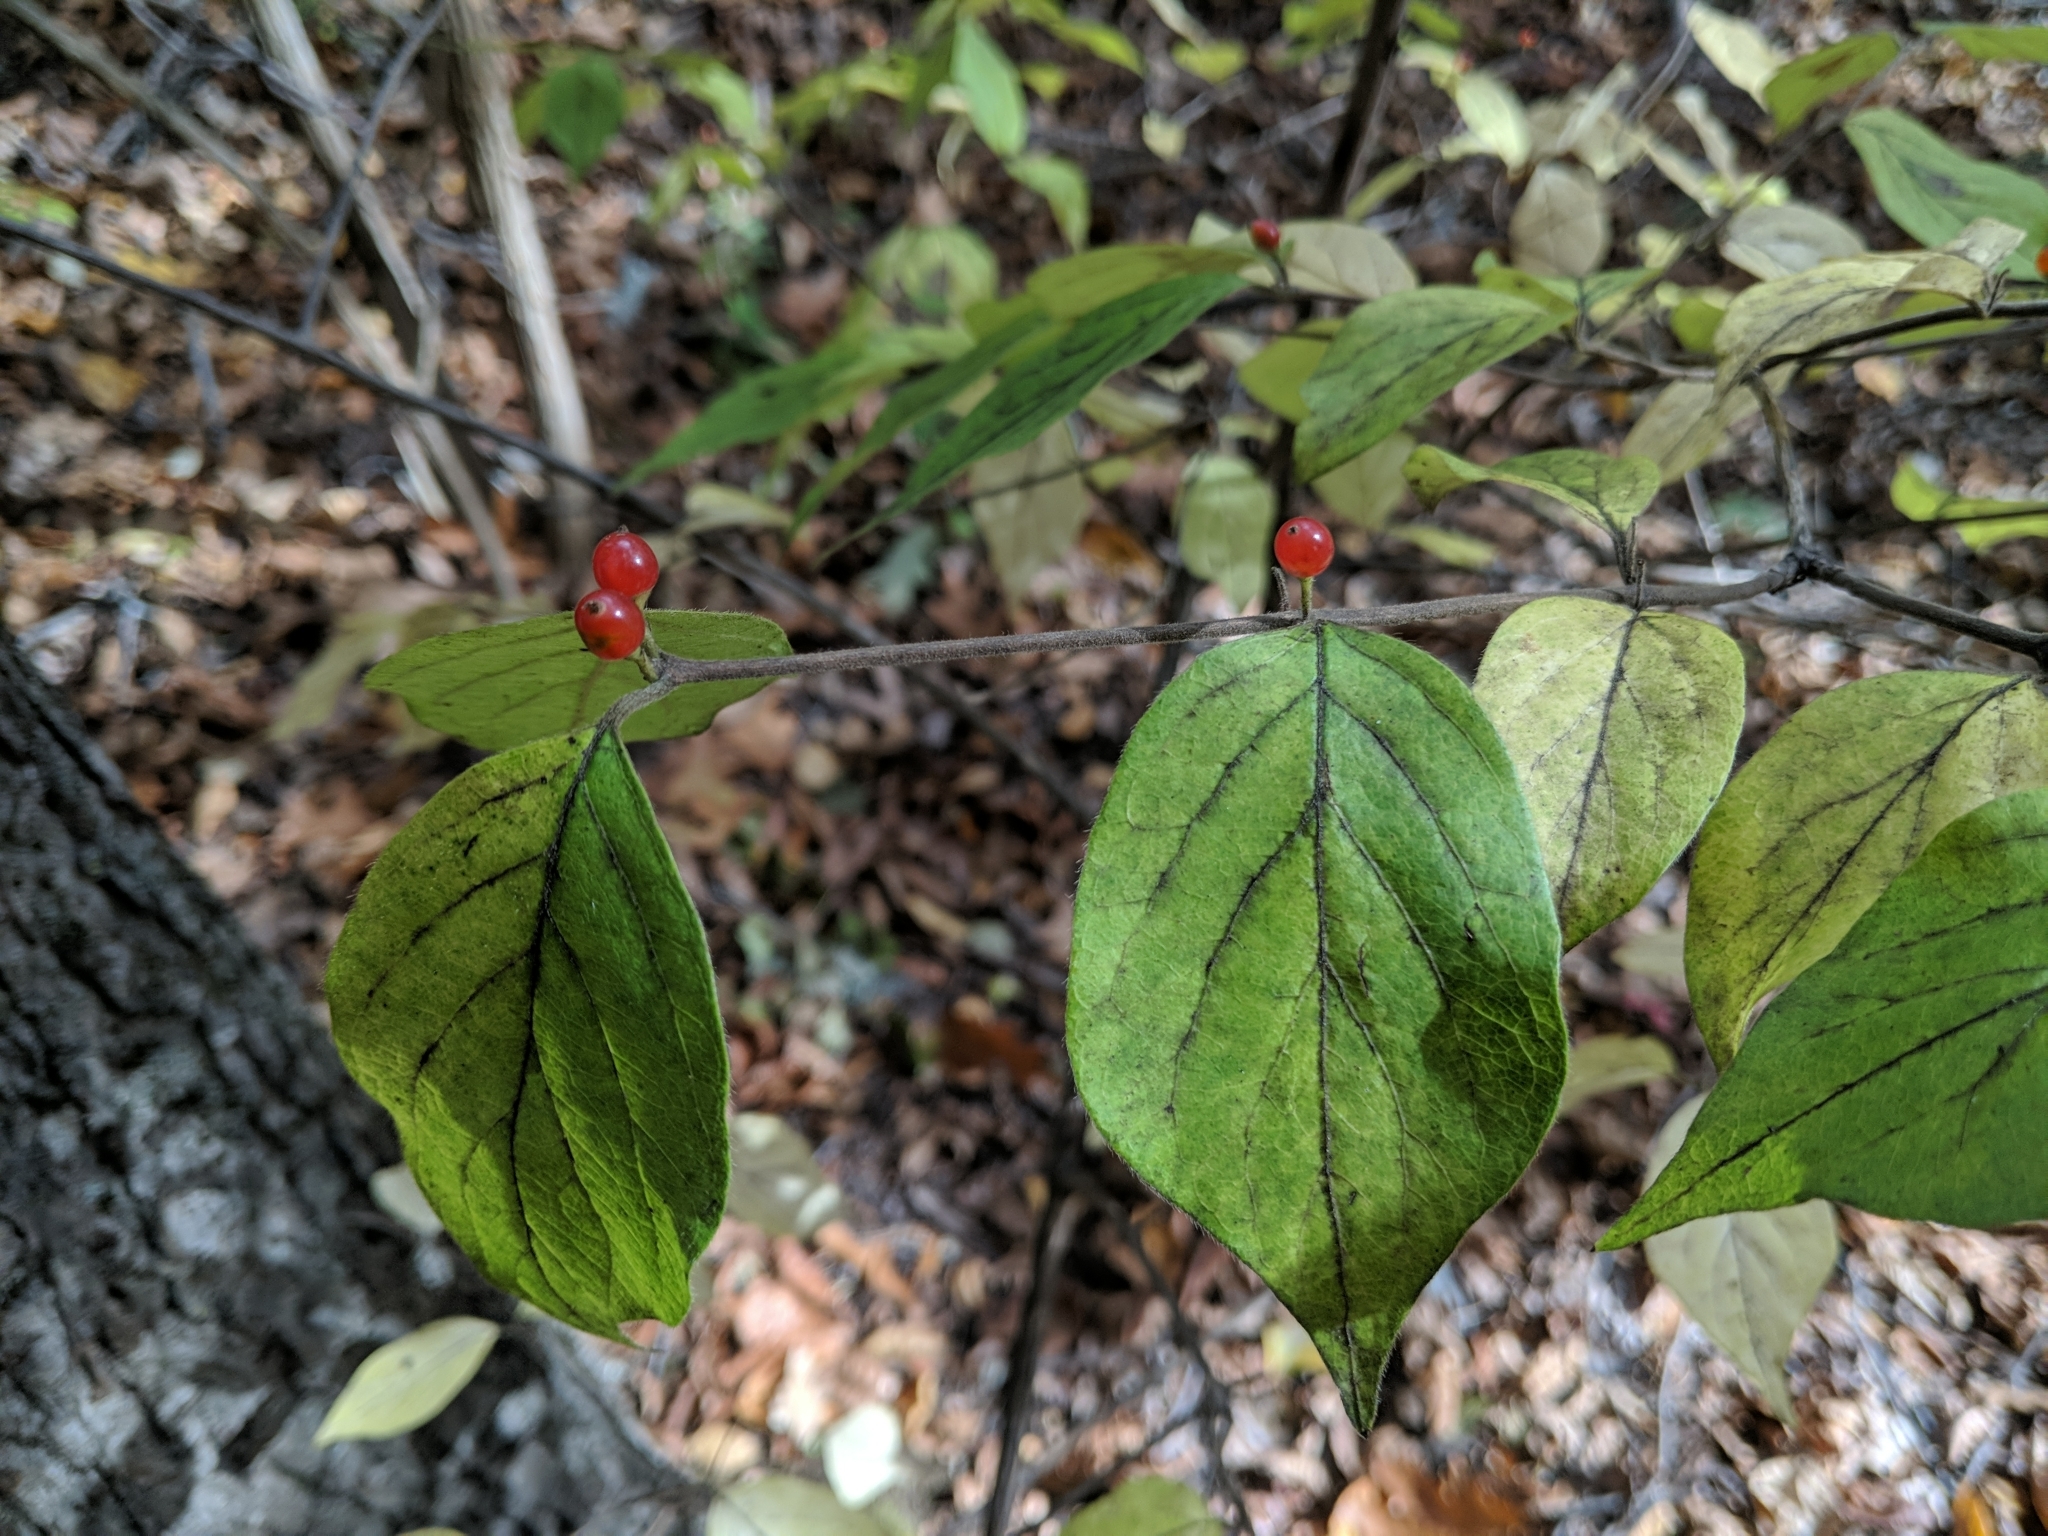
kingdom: Plantae
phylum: Tracheophyta
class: Magnoliopsida
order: Dipsacales
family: Caprifoliaceae
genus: Lonicera
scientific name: Lonicera maackii
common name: Amur honeysuckle
